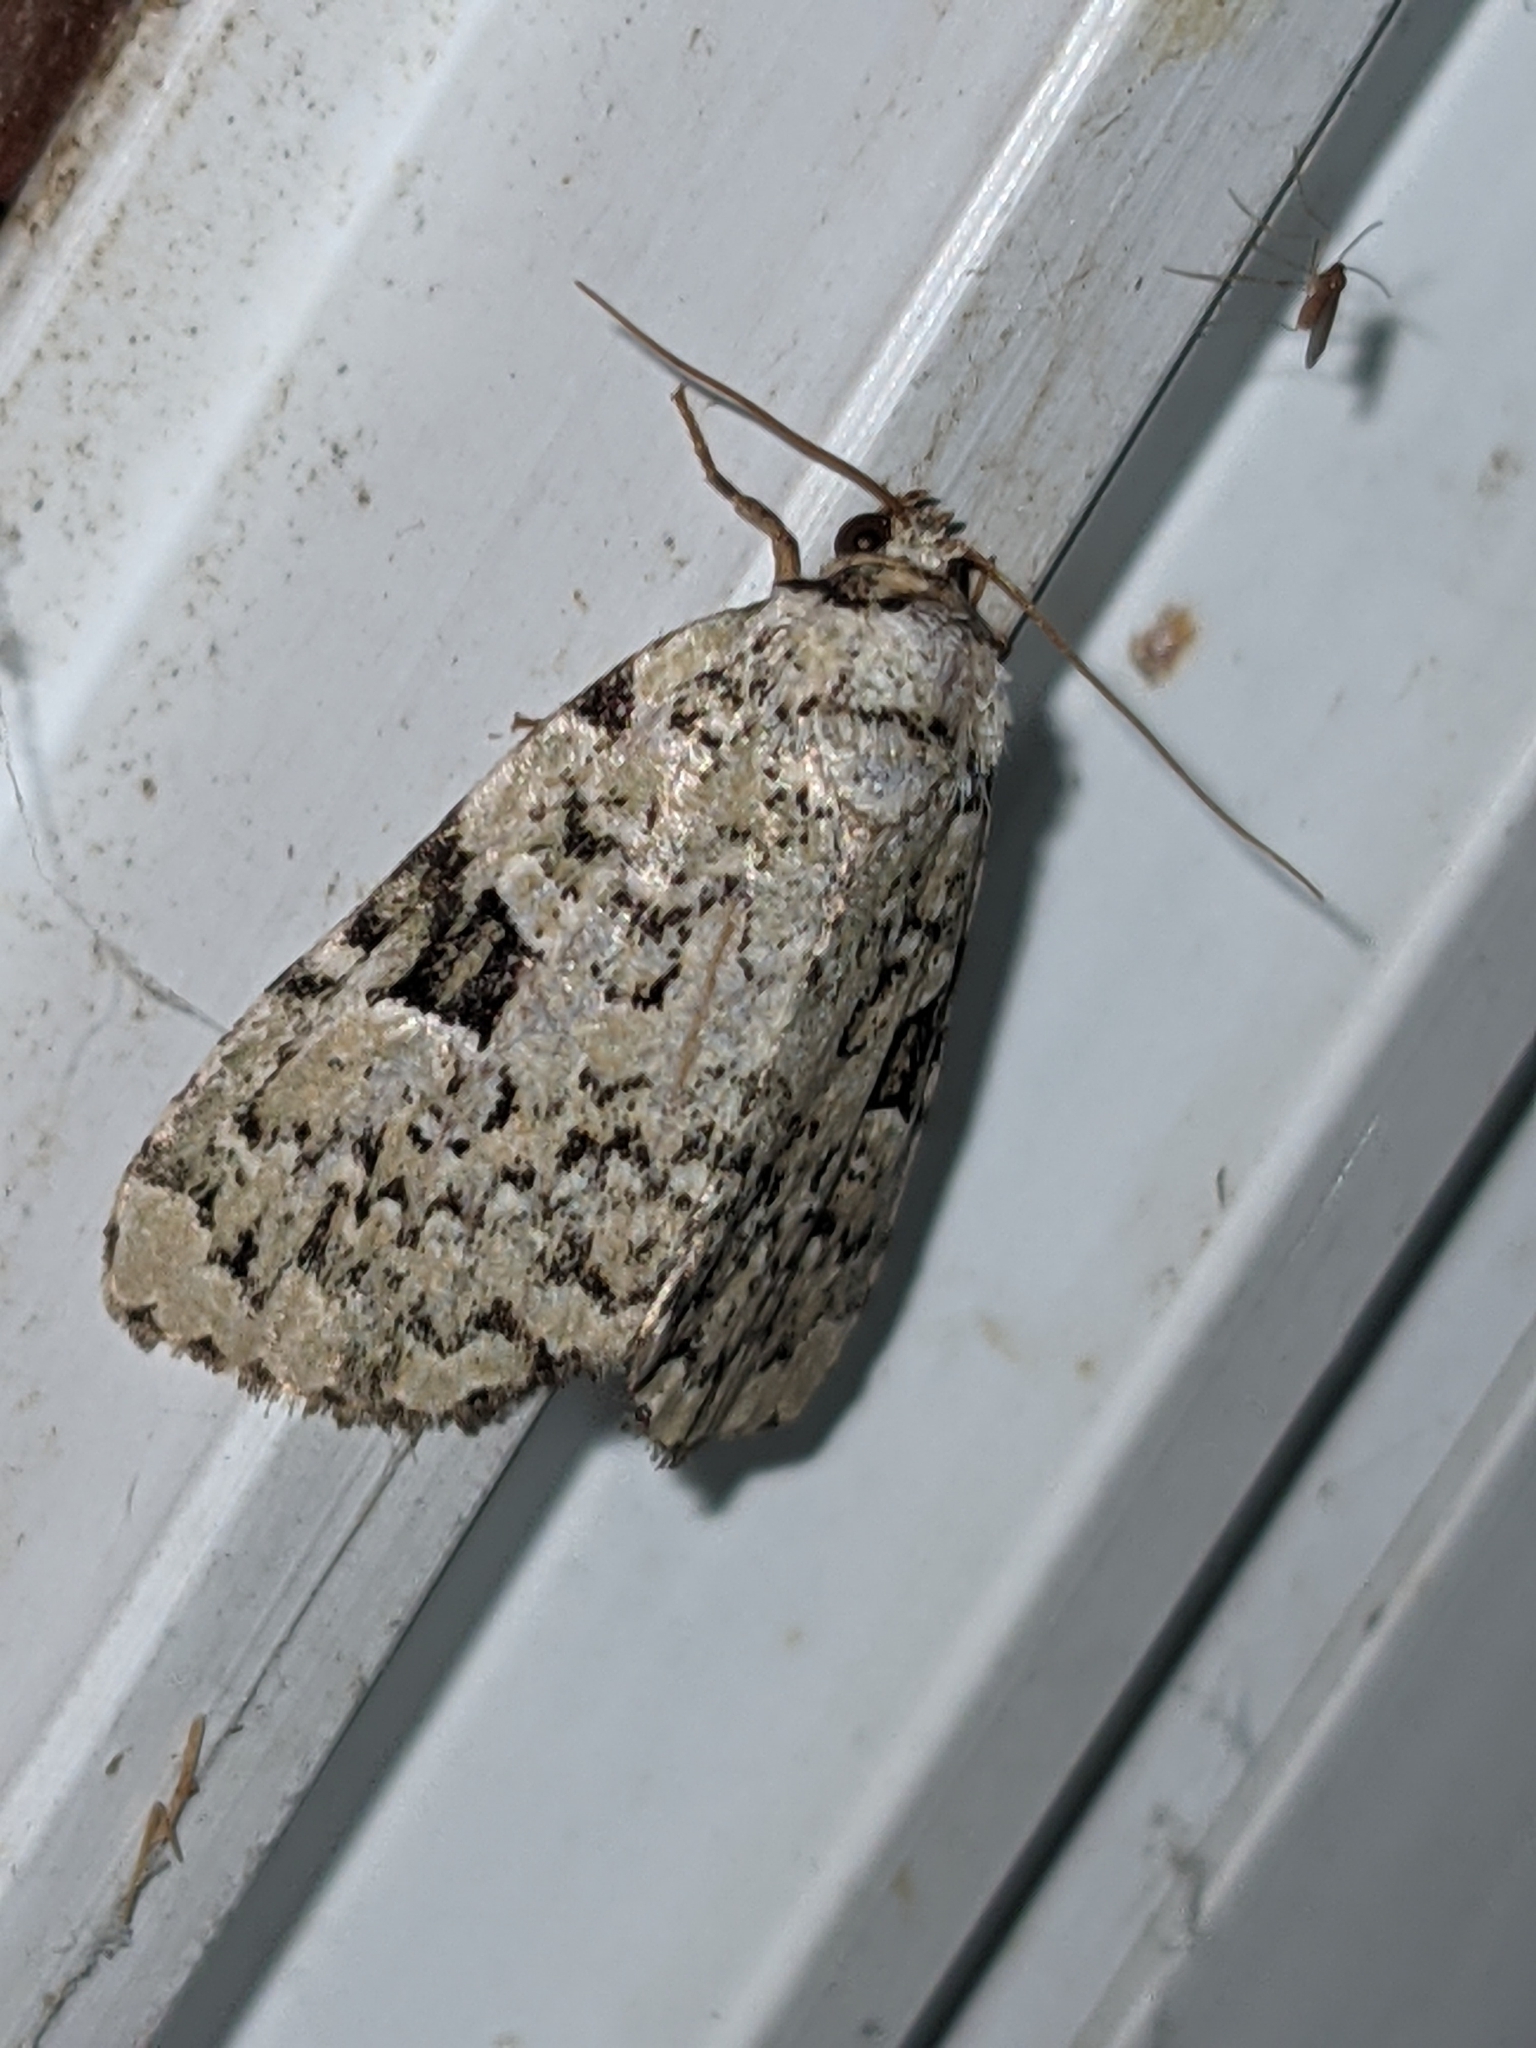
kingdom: Animalia
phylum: Arthropoda
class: Insecta
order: Lepidoptera
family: Noctuidae
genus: Leuconycta
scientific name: Leuconycta diphteroides
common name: Green leuconycta moth
